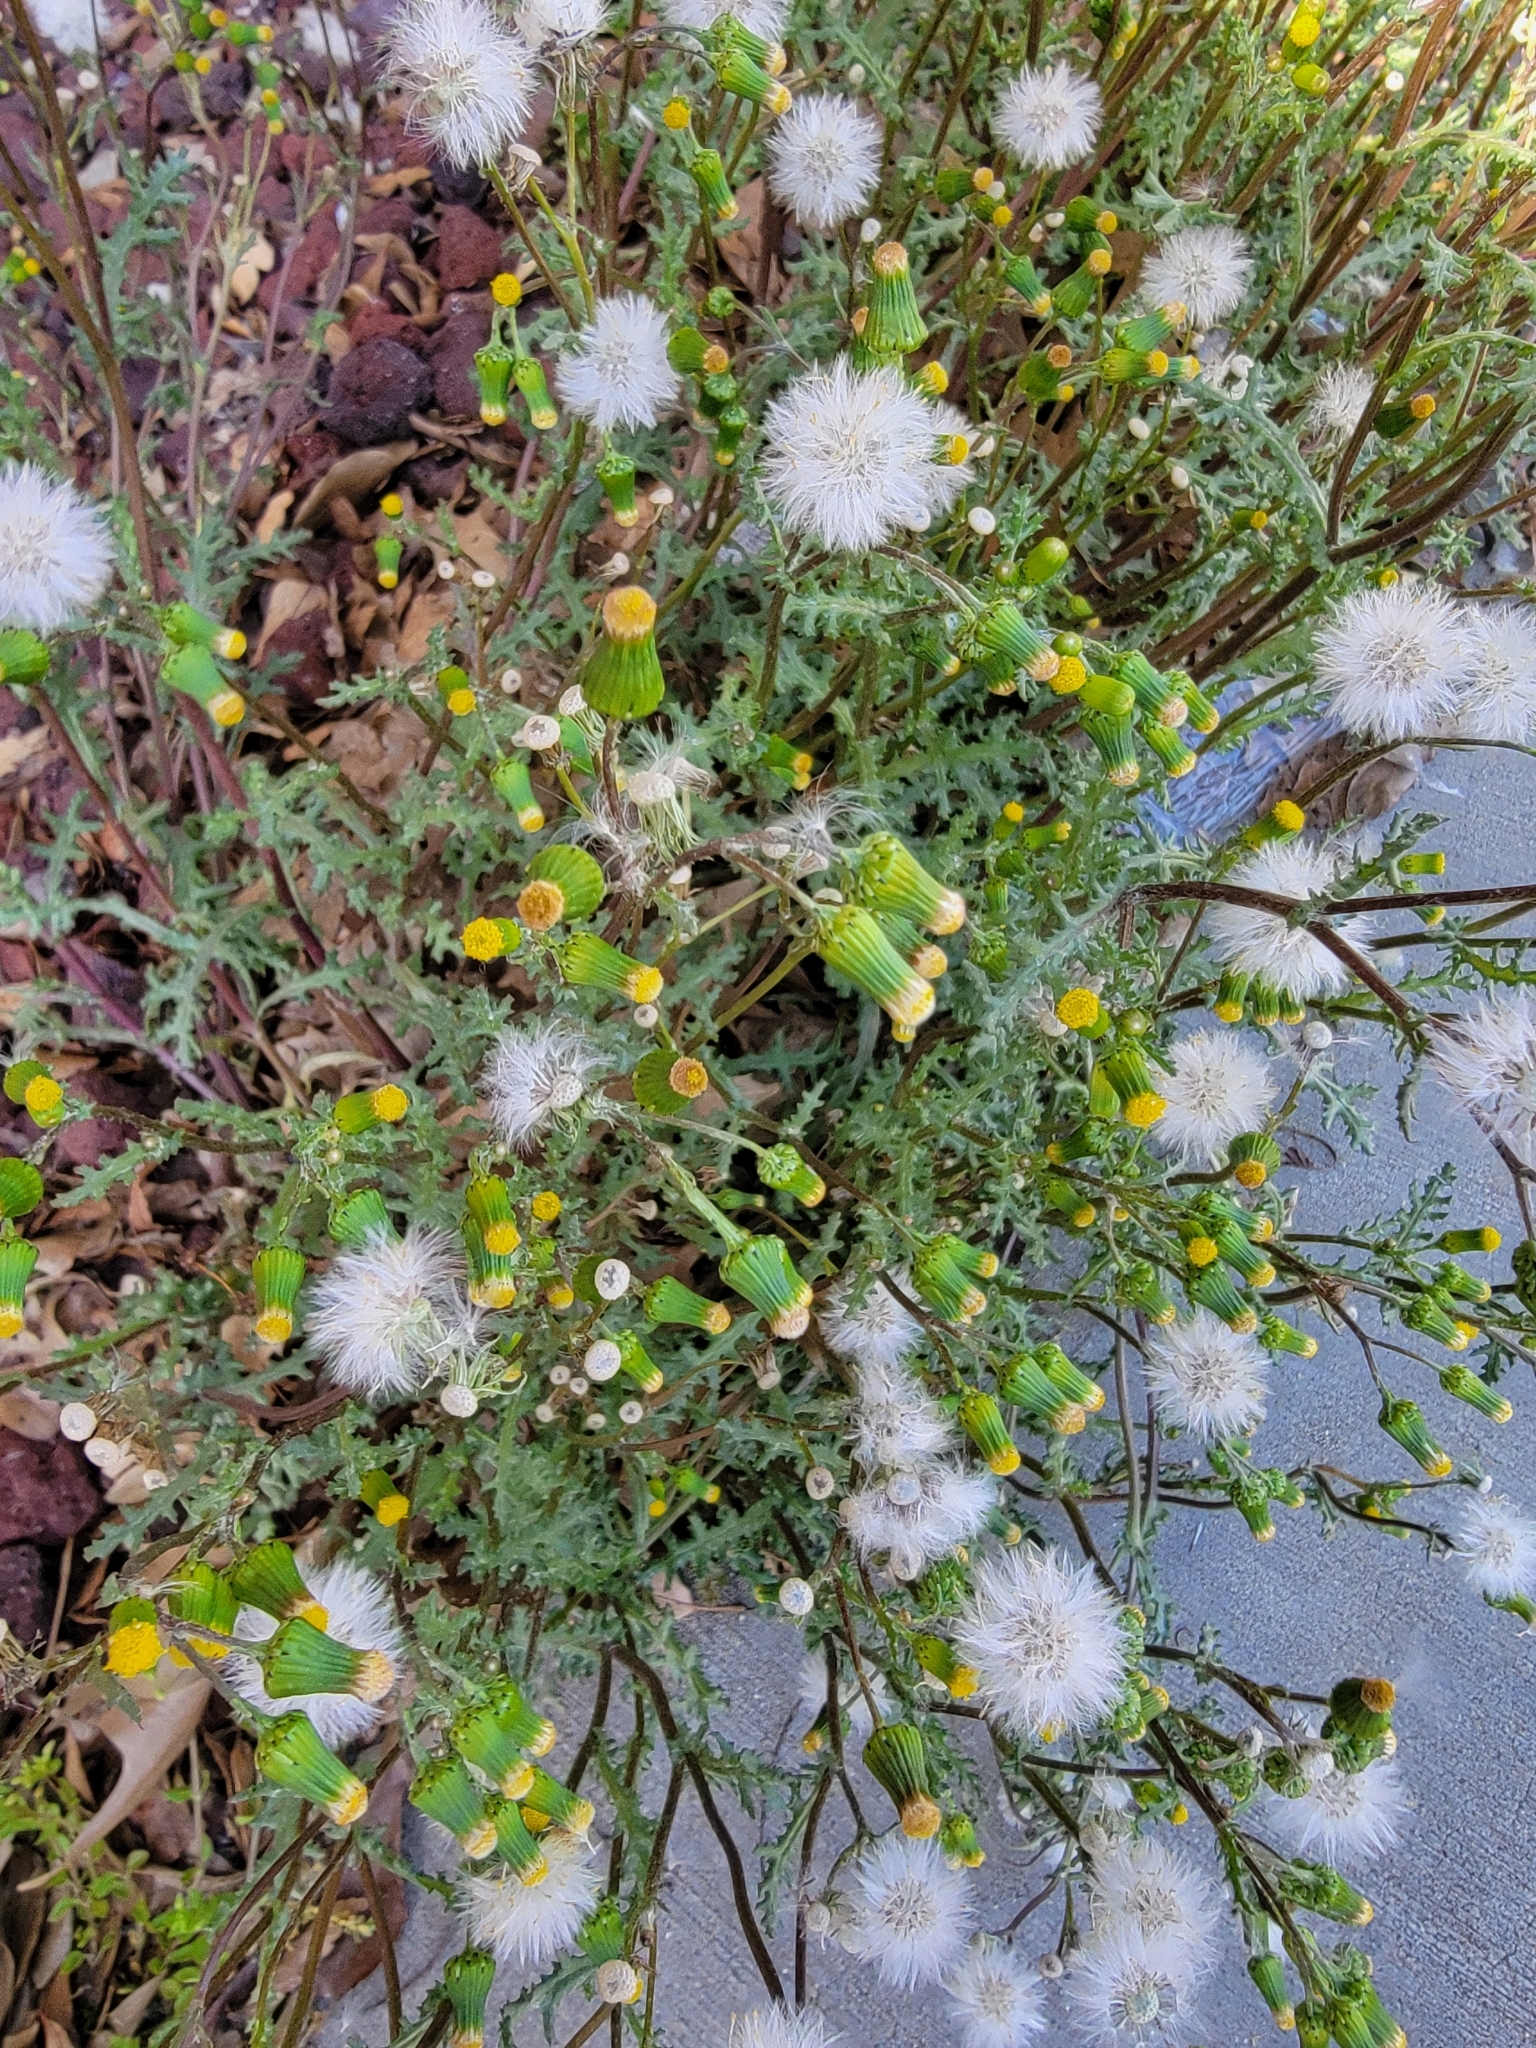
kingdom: Plantae
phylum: Tracheophyta
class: Magnoliopsida
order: Asterales
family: Asteraceae
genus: Senecio
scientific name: Senecio vulgaris
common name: Old-man-in-the-spring
